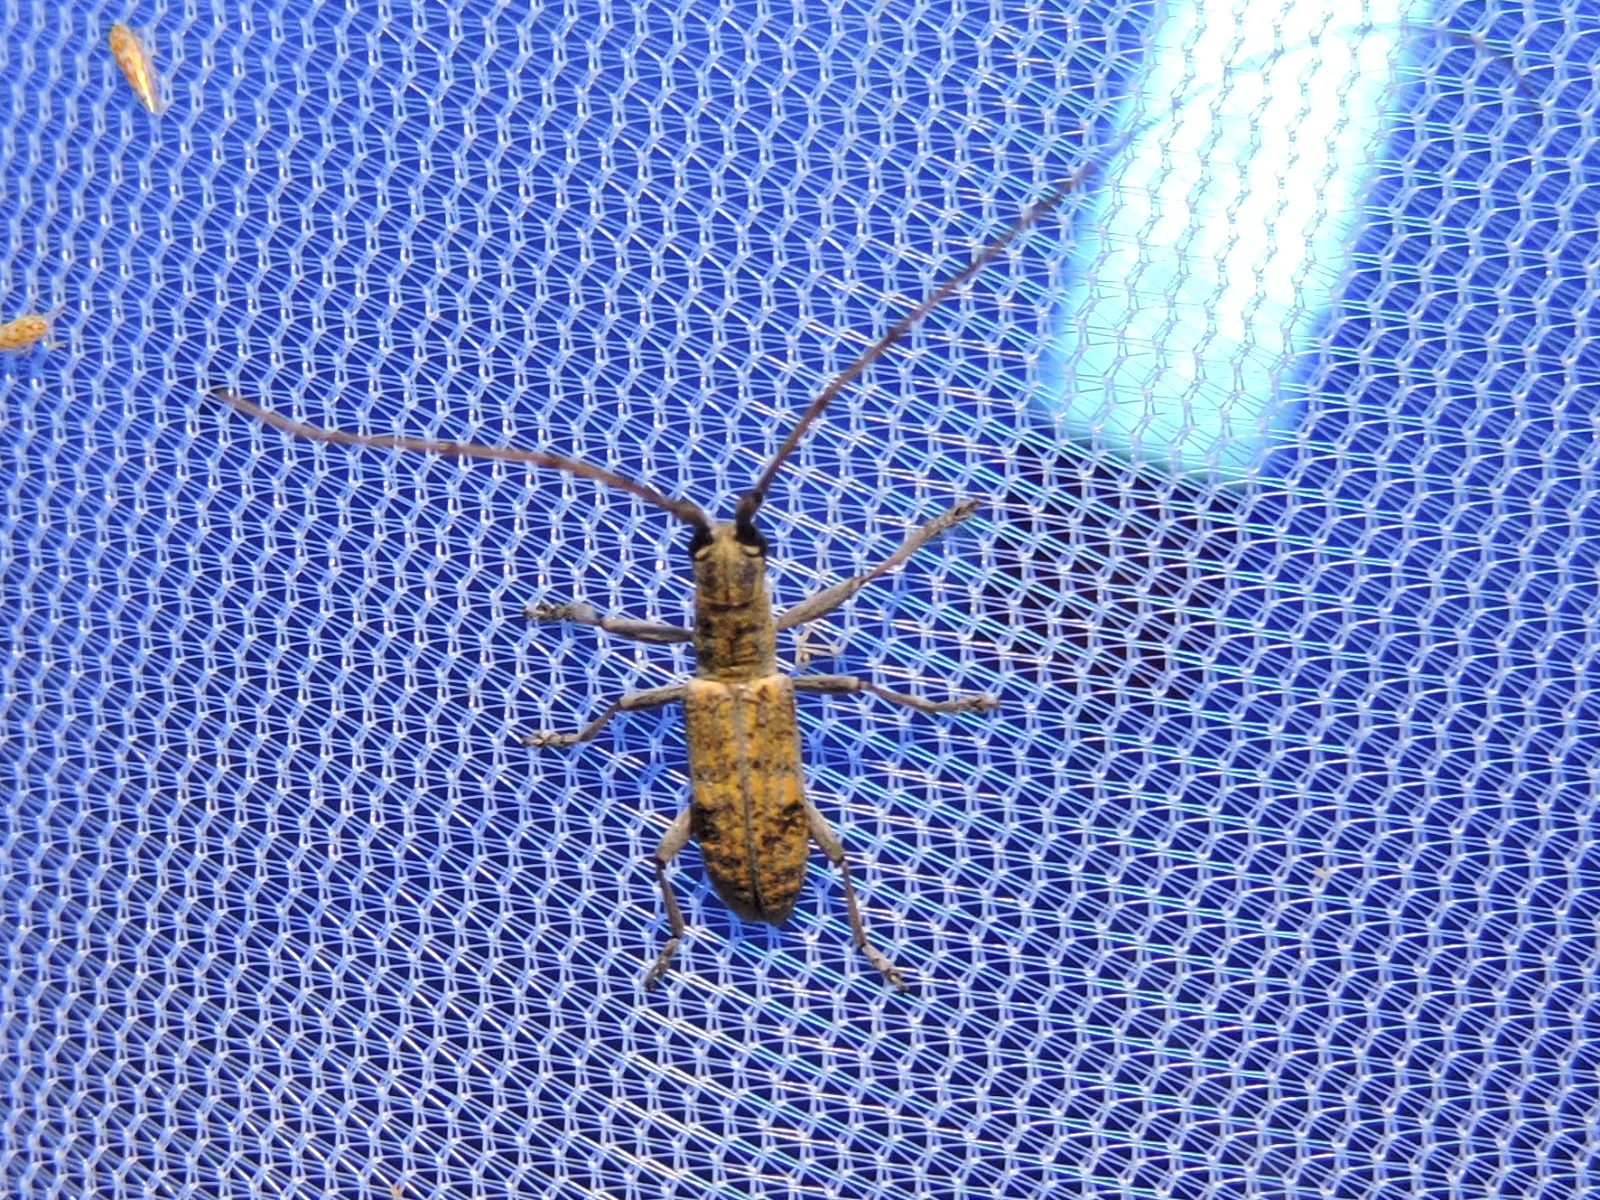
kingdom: Animalia
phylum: Arthropoda
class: Insecta
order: Coleoptera
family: Cerambycidae
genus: Dorcaschema
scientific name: Dorcaschema alternatum
